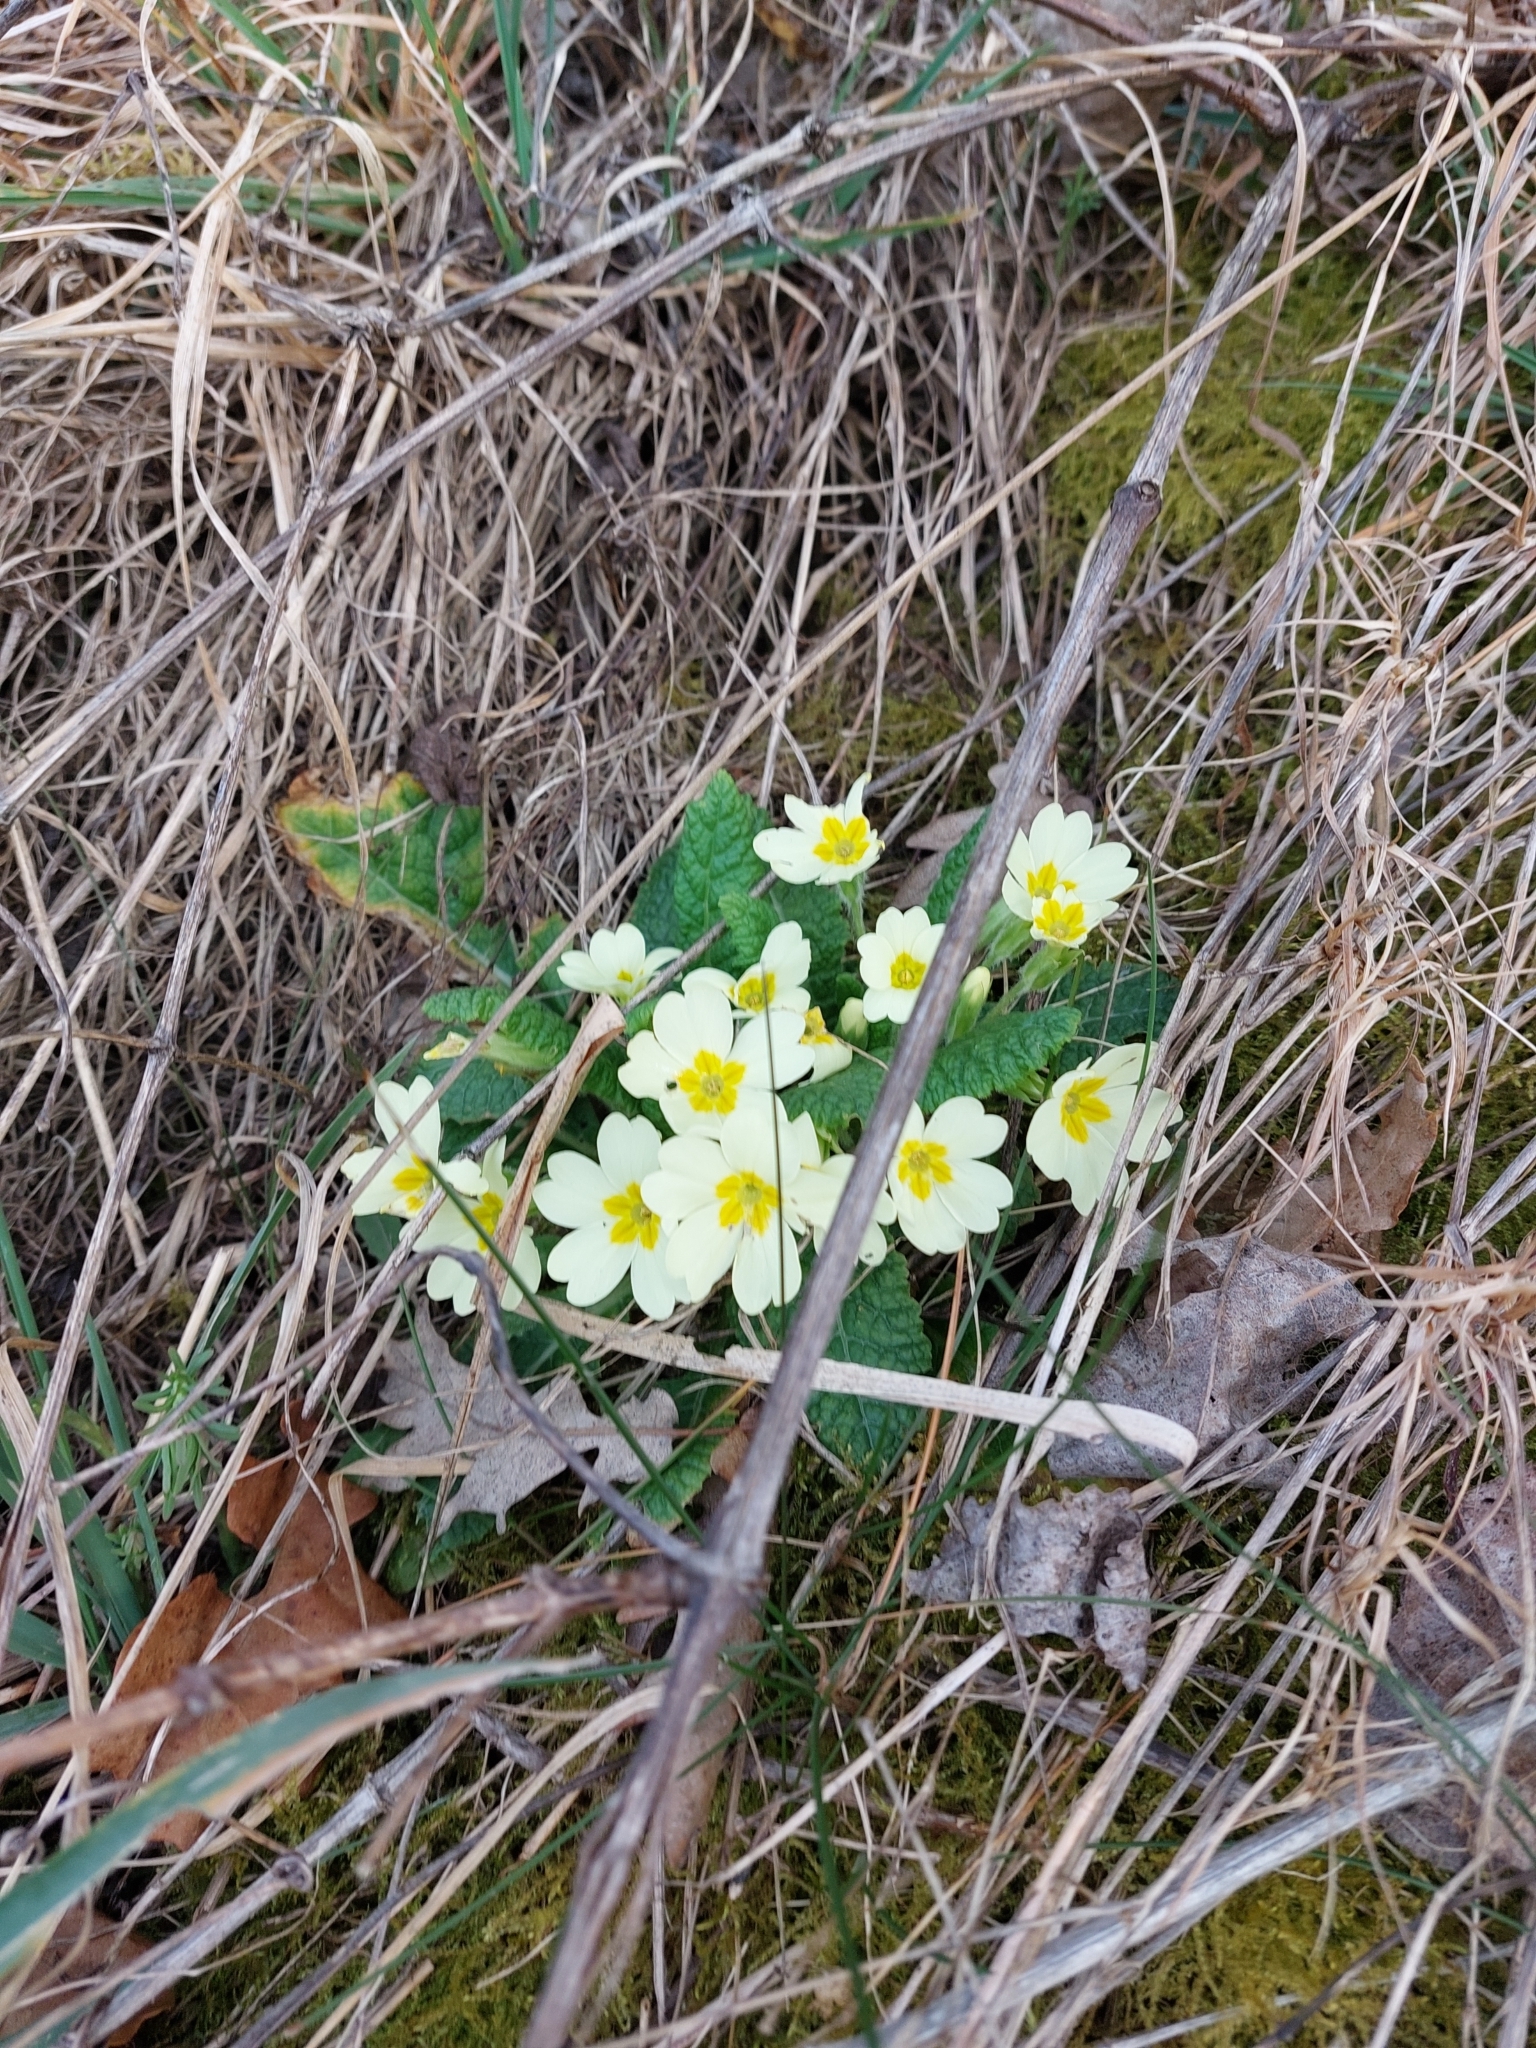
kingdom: Plantae
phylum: Tracheophyta
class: Magnoliopsida
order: Ericales
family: Primulaceae
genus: Primula
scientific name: Primula vulgaris
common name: Primrose
